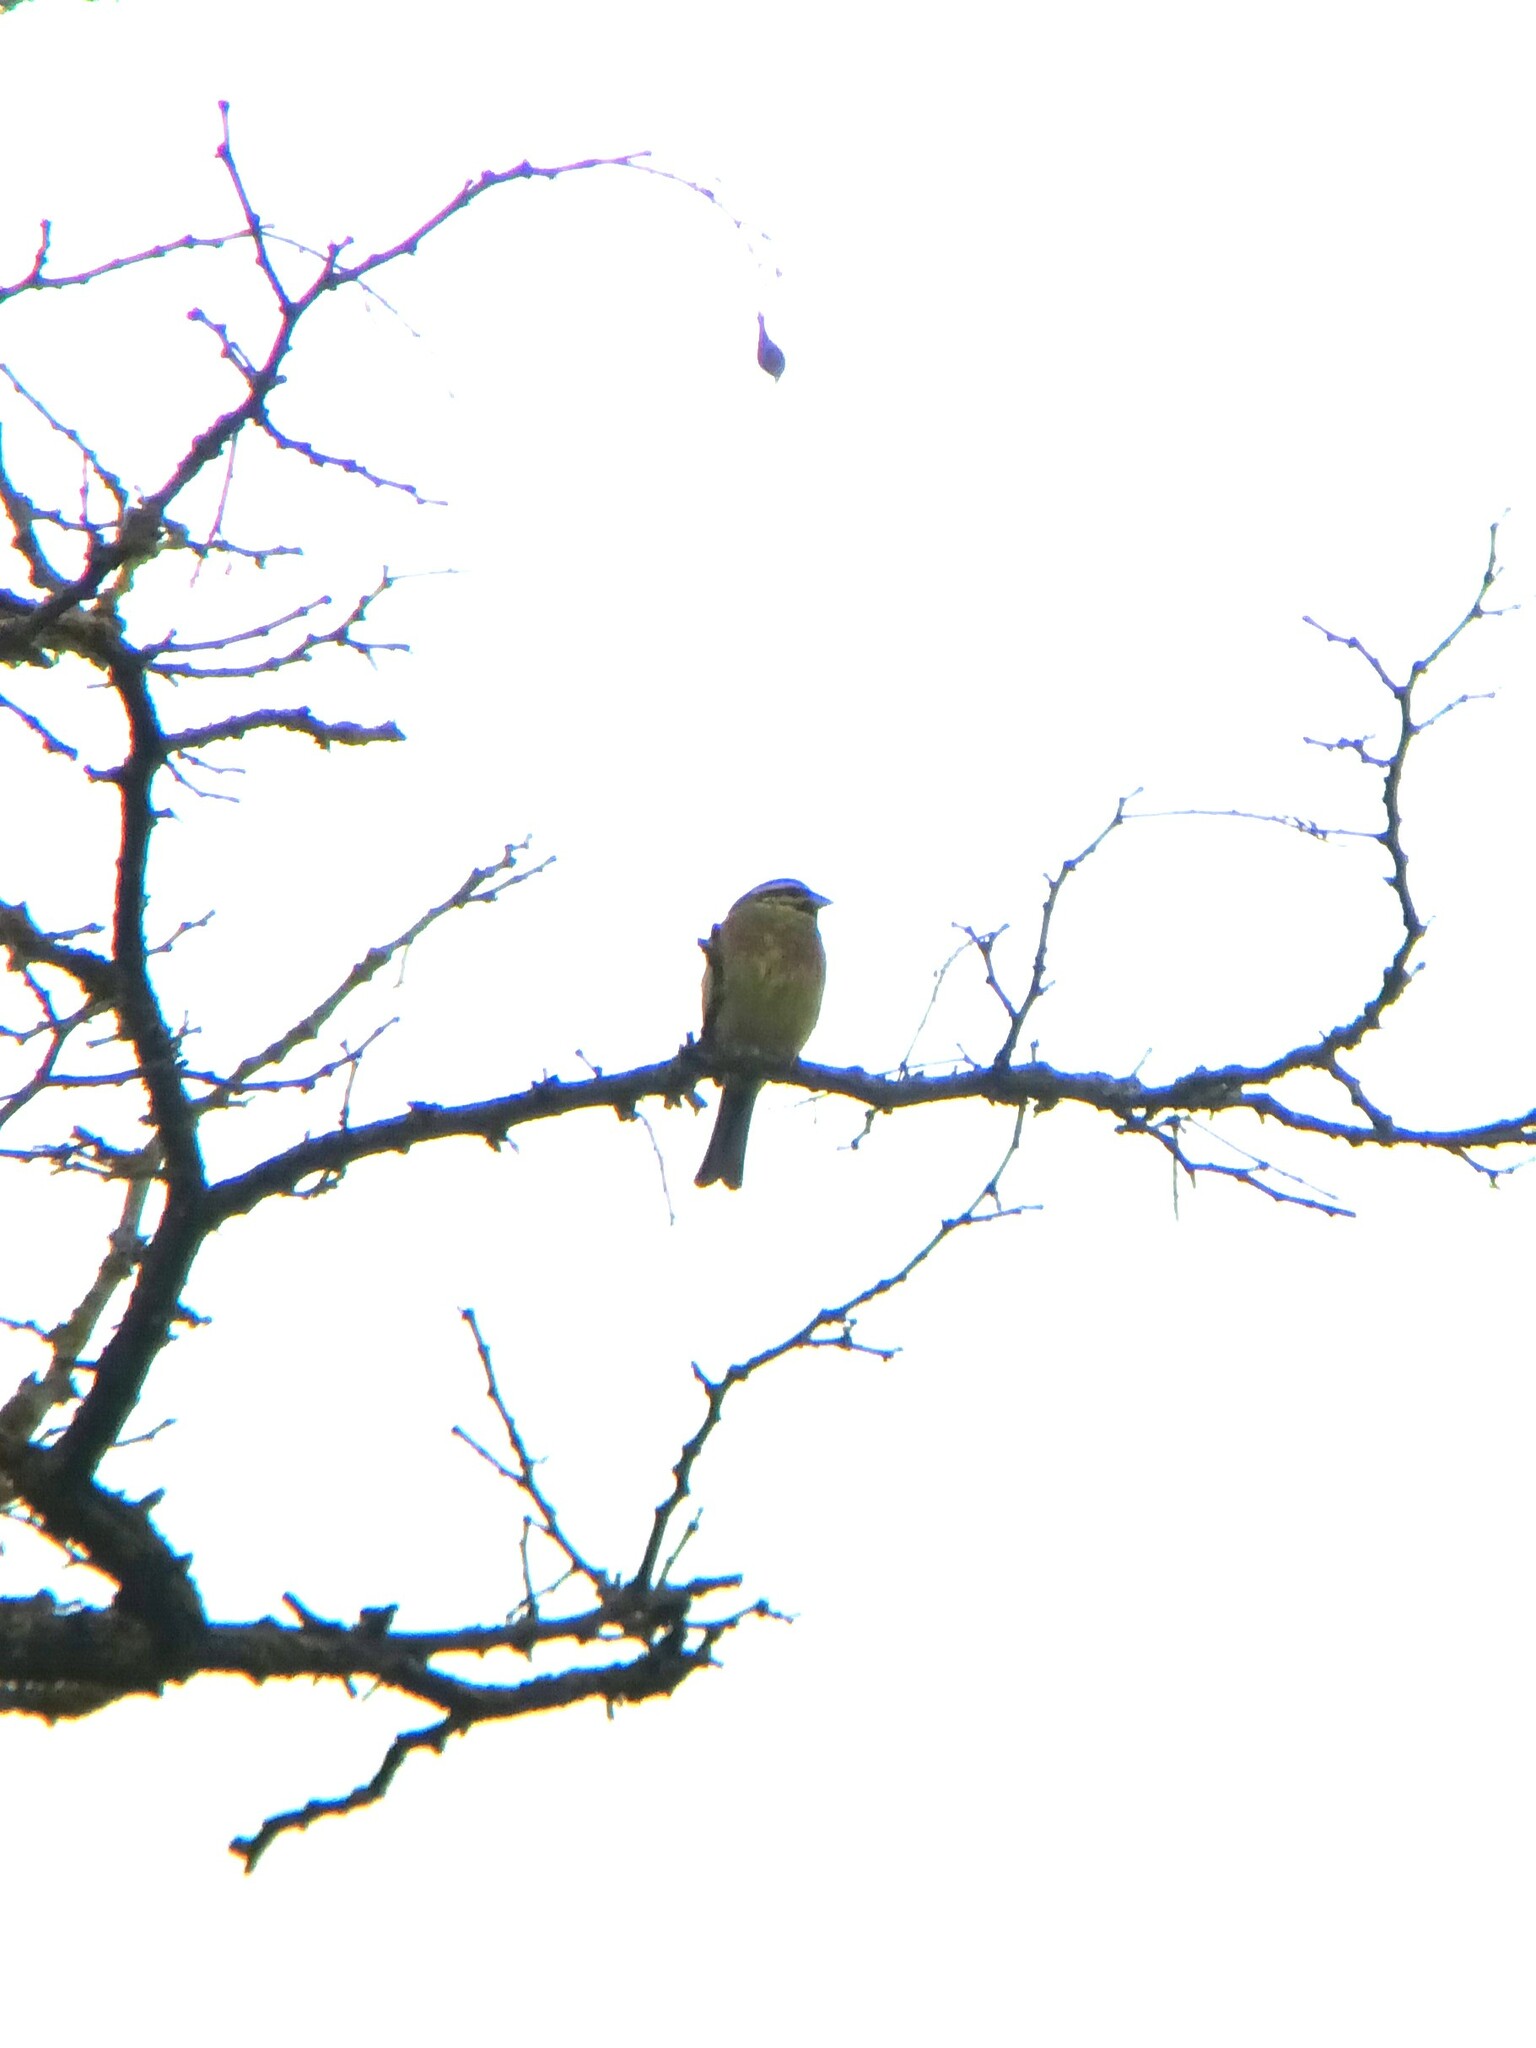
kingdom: Animalia
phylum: Chordata
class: Aves
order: Passeriformes
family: Emberizidae
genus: Emberiza
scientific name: Emberiza cirlus
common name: Cirl bunting
